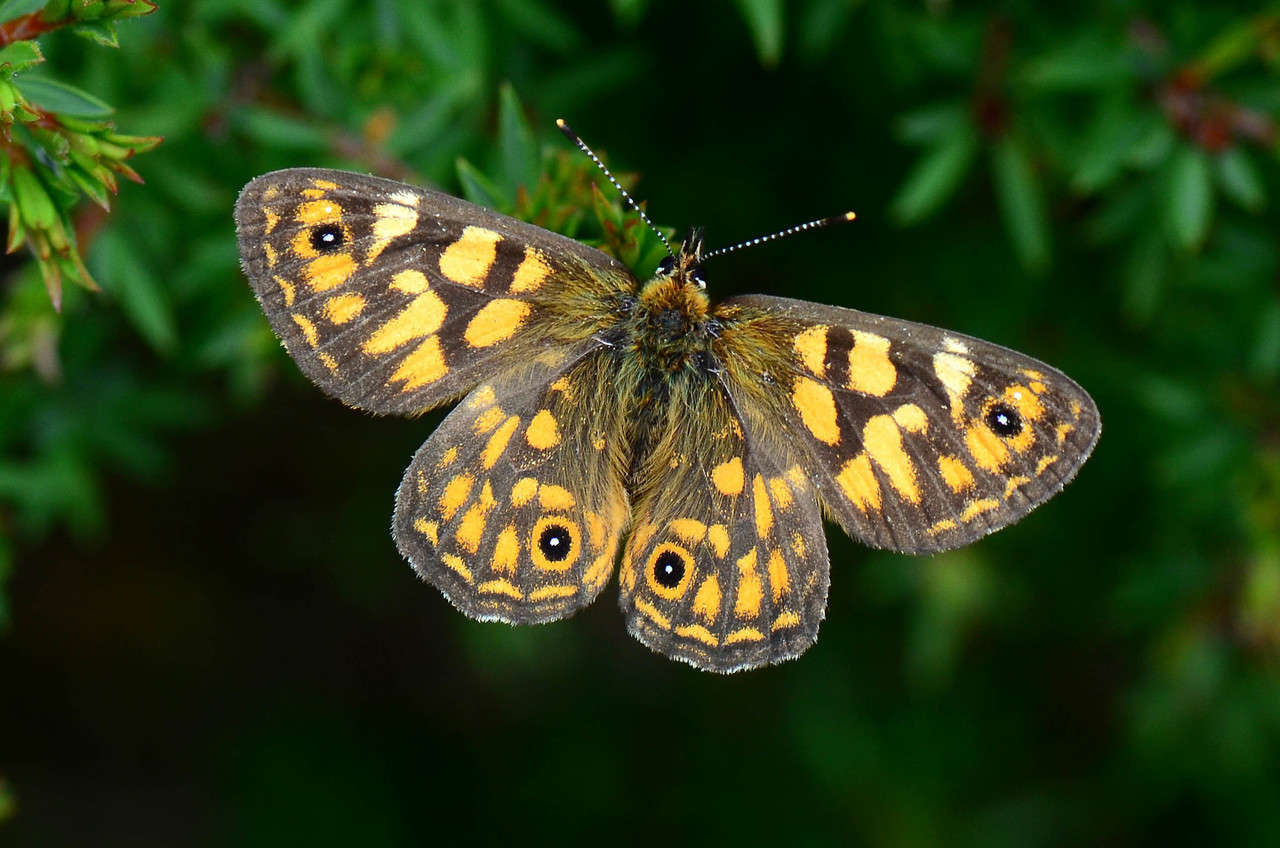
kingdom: Animalia
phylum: Arthropoda
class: Insecta
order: Lepidoptera
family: Nymphalidae
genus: Oreixenica
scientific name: Oreixenica correae
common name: Correa brown
